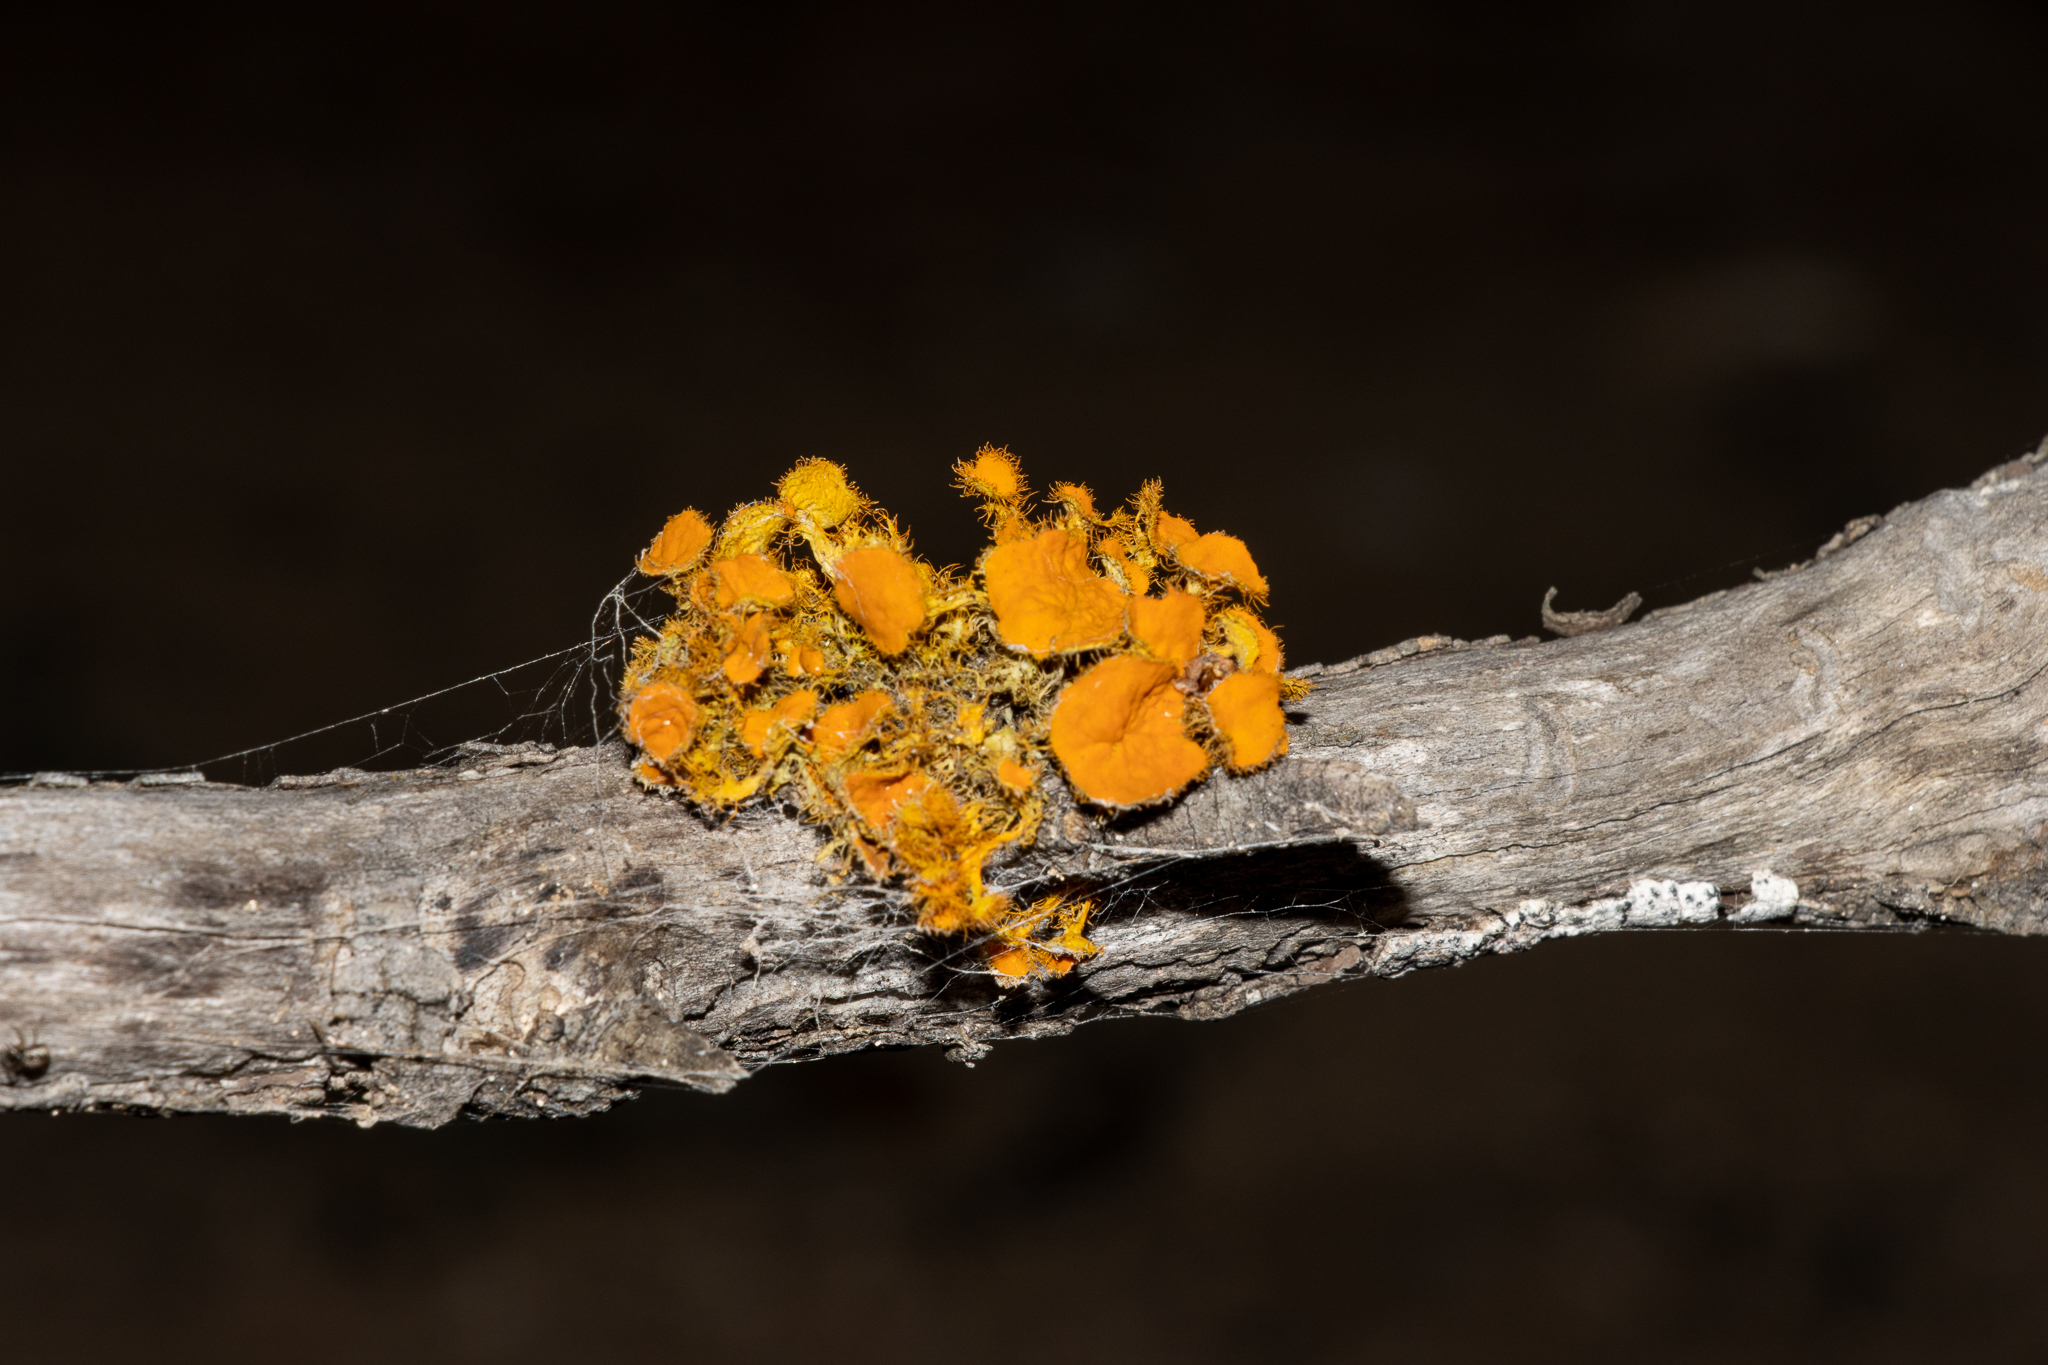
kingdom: Fungi
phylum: Ascomycota
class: Lecanoromycetes
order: Teloschistales
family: Teloschistaceae
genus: Niorma
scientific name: Niorma chrysophthalma
